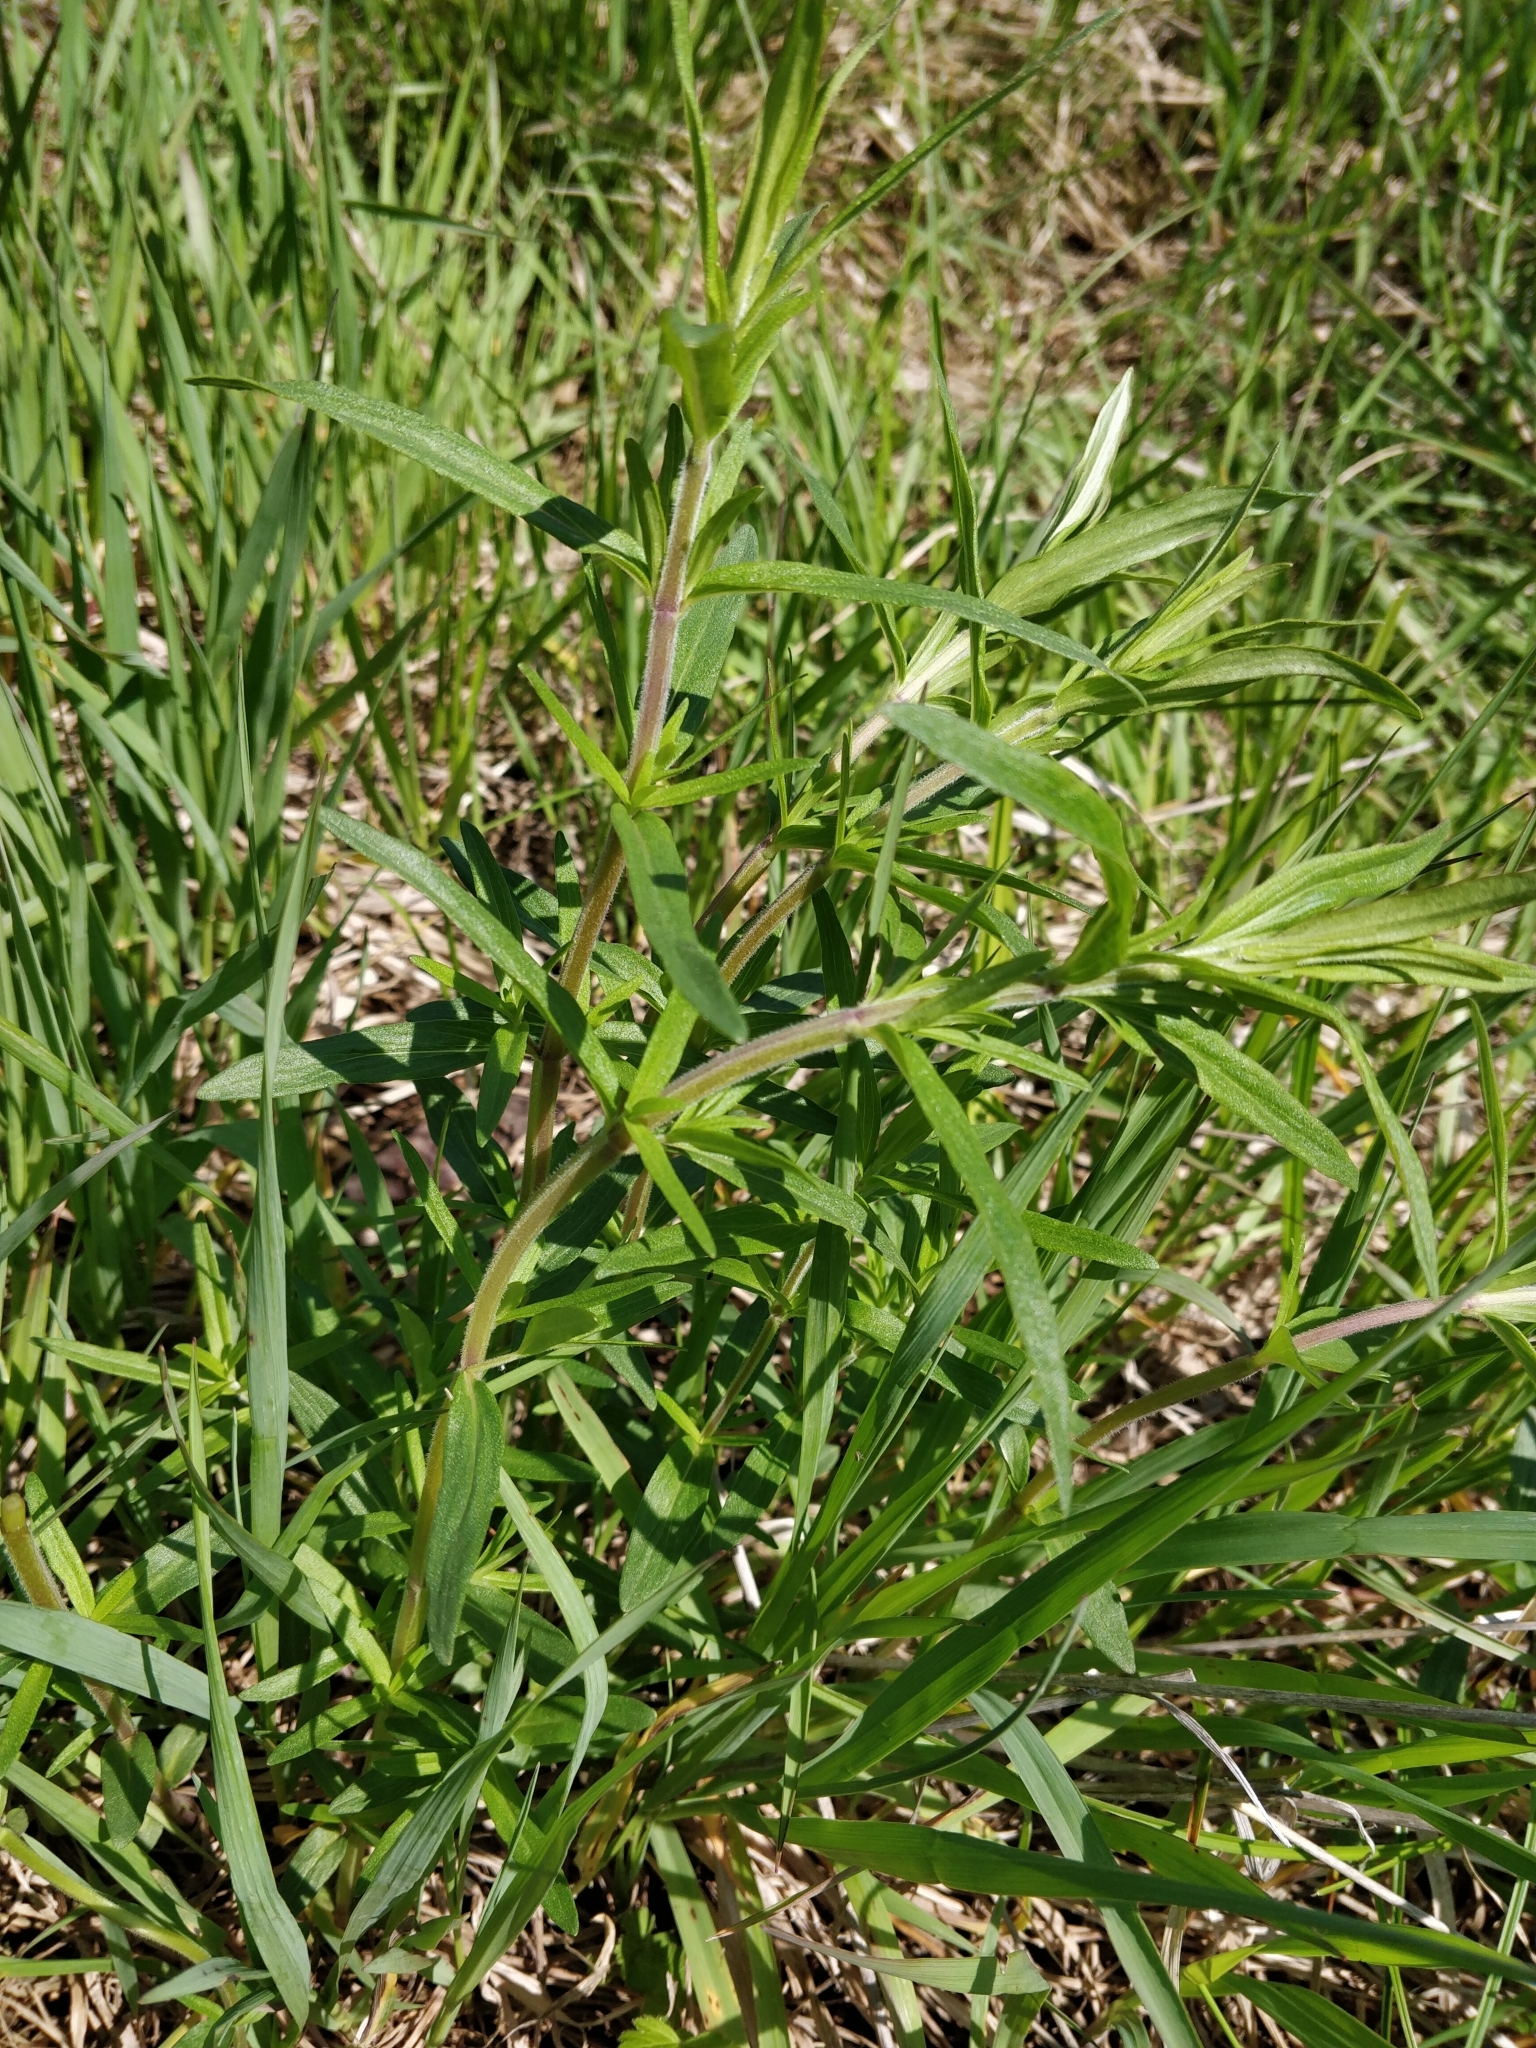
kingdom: Plantae
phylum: Tracheophyta
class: Magnoliopsida
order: Lamiales
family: Lamiaceae
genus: Pycnanthemum
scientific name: Pycnanthemum virginianum
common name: Virginia mountain-mint
